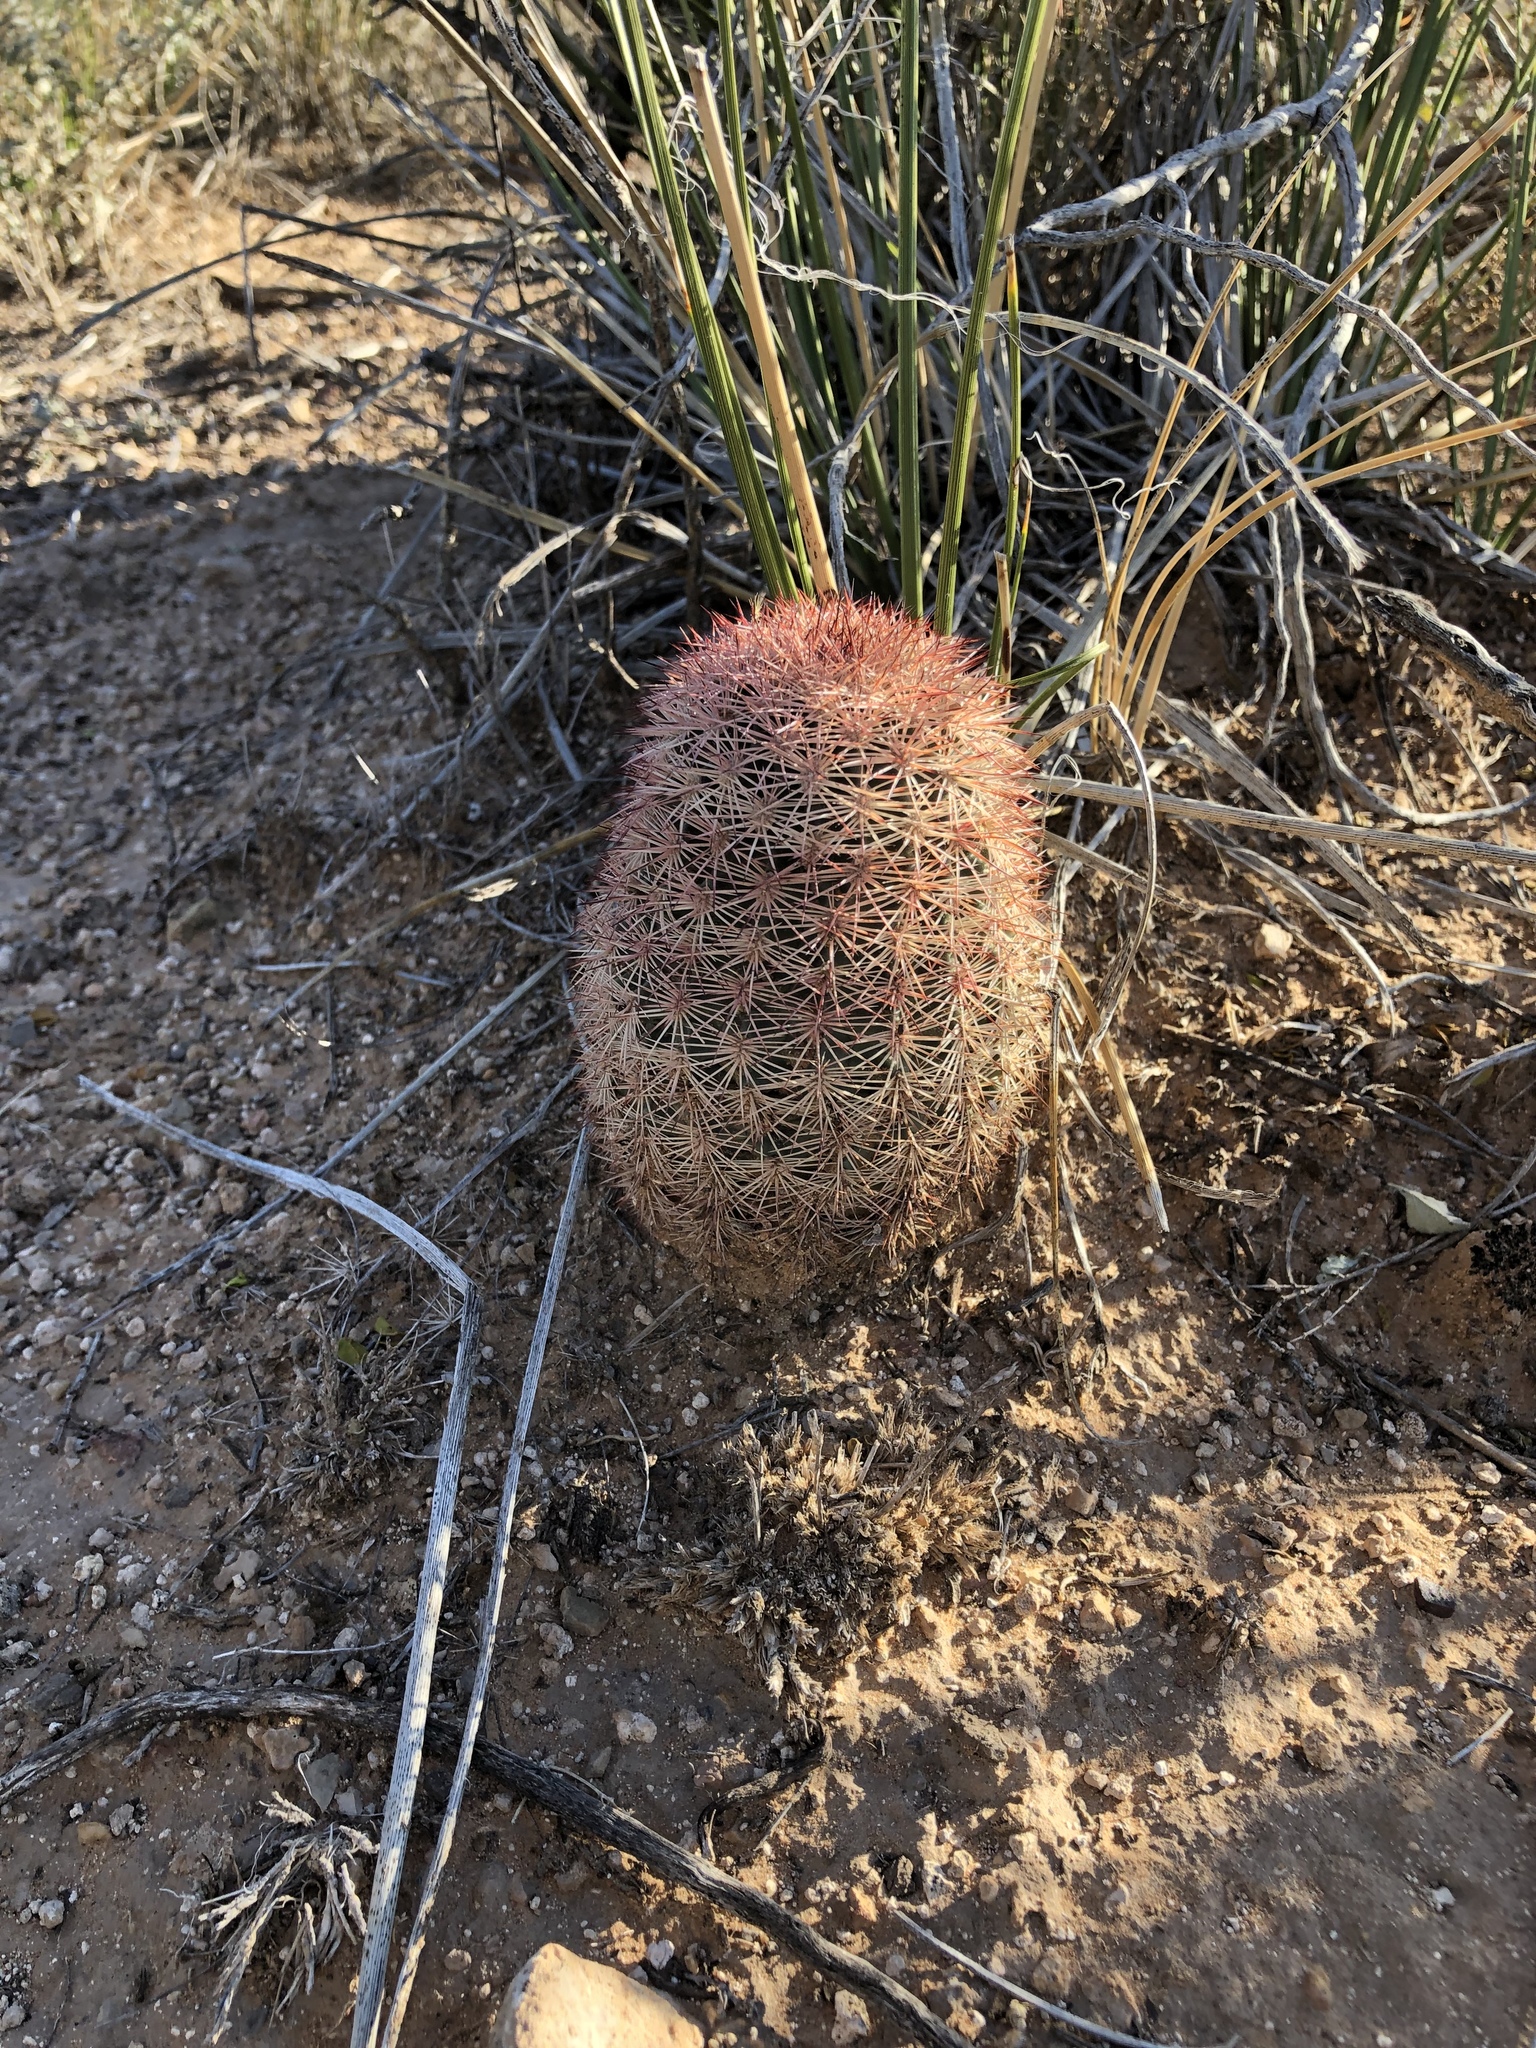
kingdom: Plantae
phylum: Tracheophyta
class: Magnoliopsida
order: Caryophyllales
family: Cactaceae
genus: Echinocereus
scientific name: Echinocereus dasyacanthus
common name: Spiny hedgehog cactus
